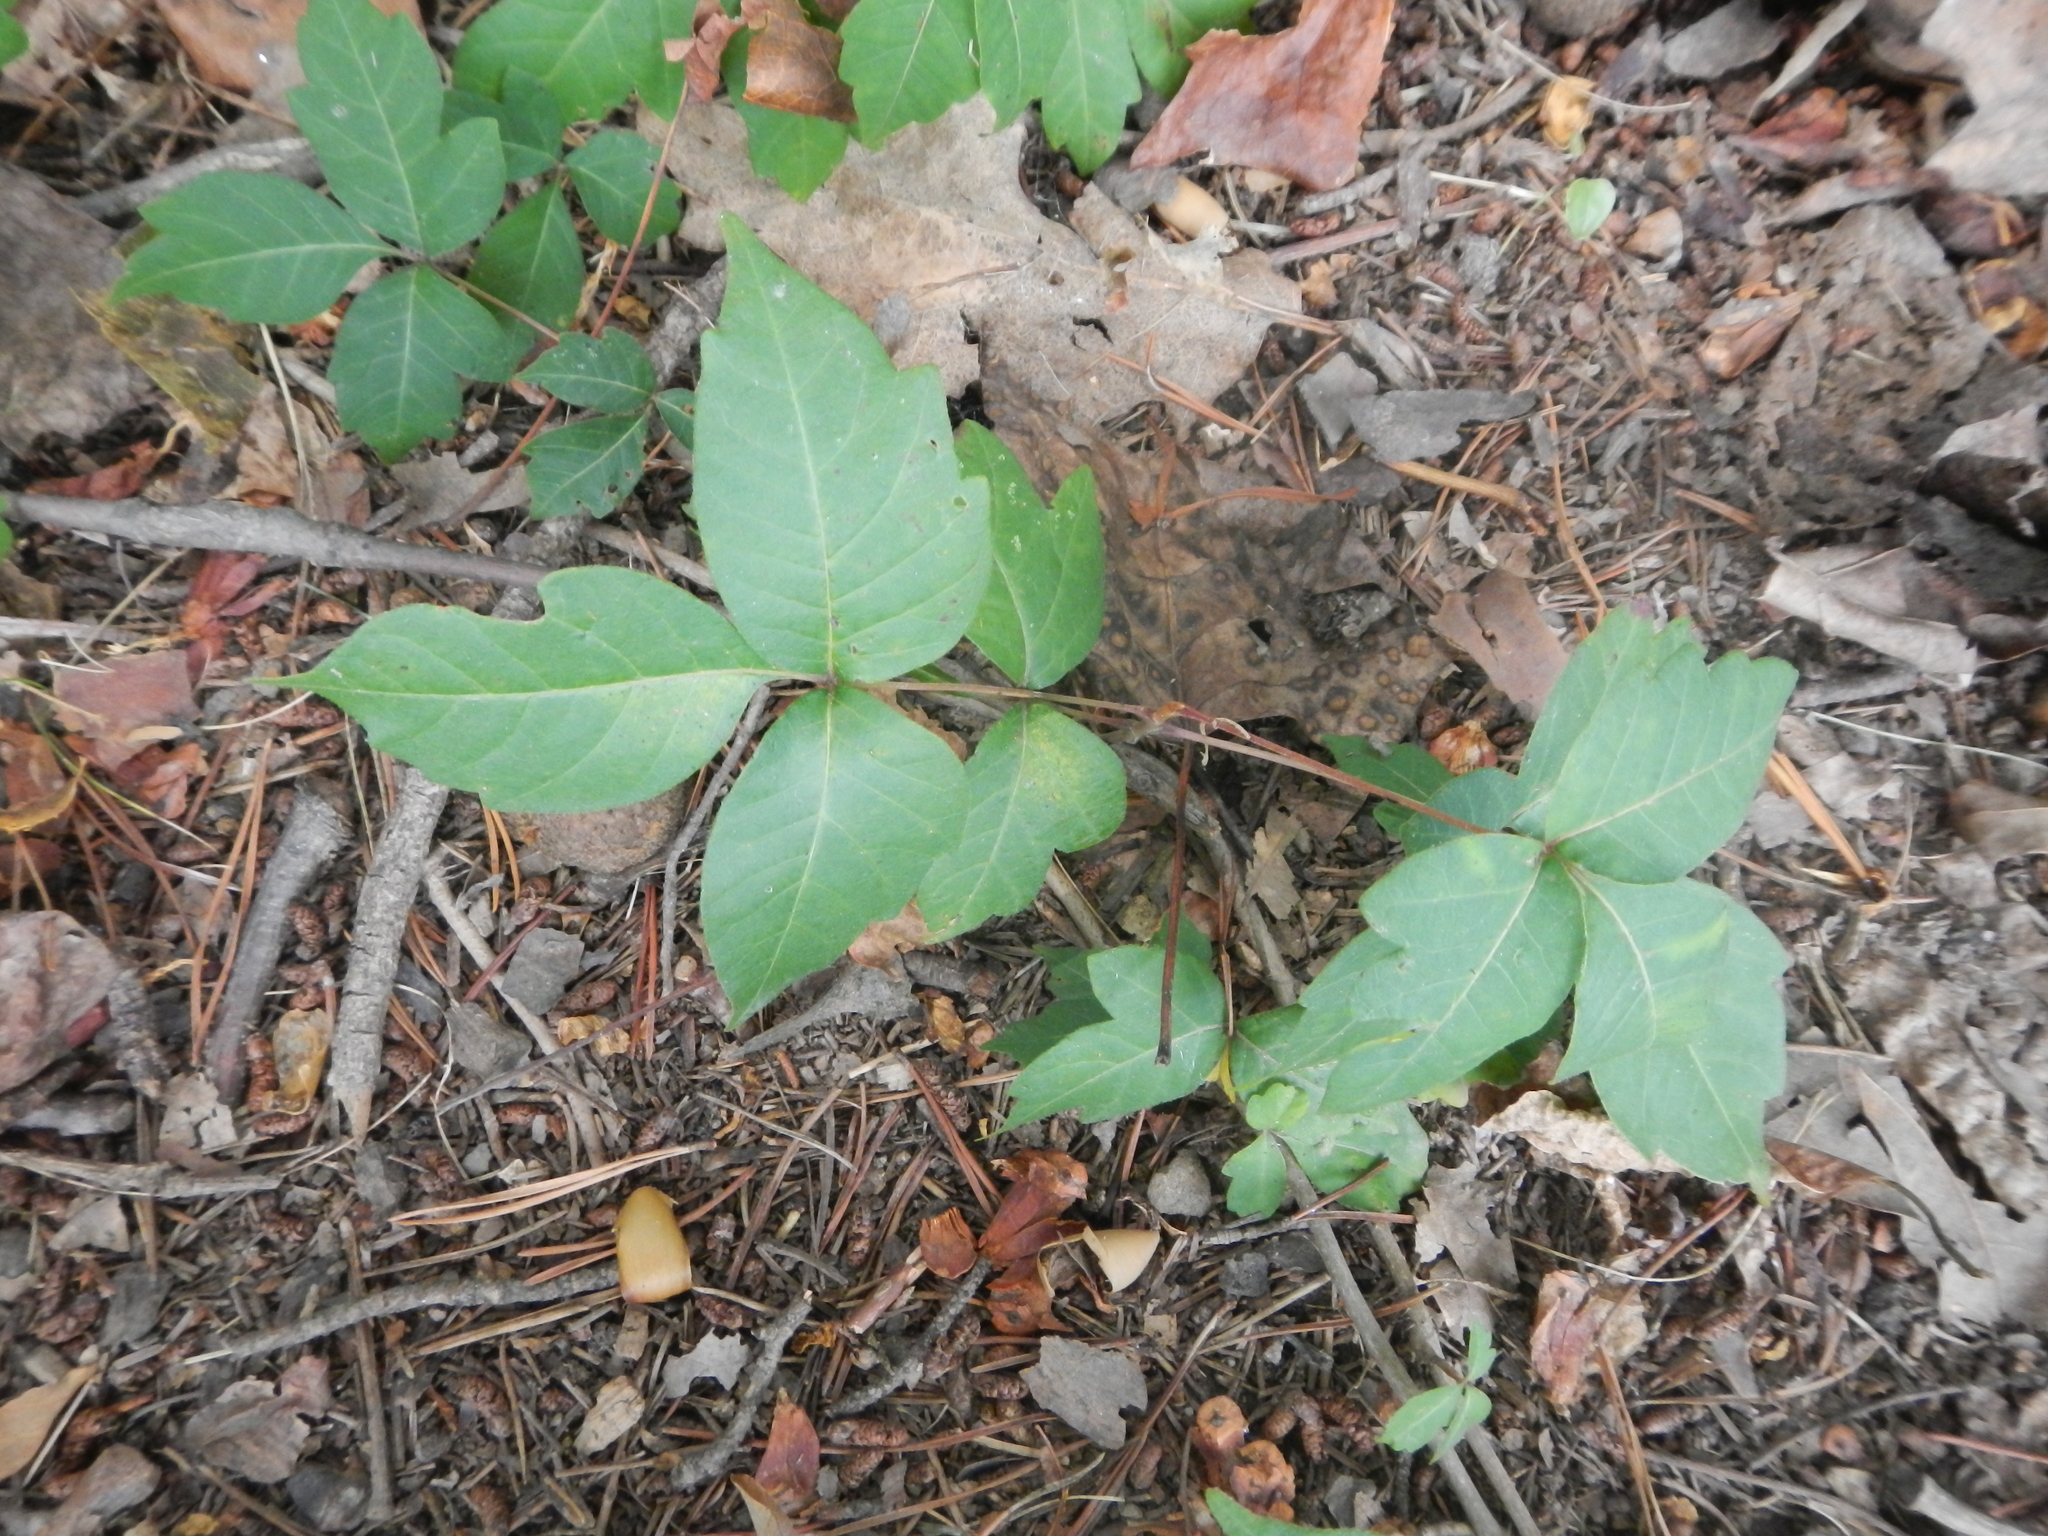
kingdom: Plantae
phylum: Tracheophyta
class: Magnoliopsida
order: Sapindales
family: Anacardiaceae
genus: Toxicodendron
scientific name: Toxicodendron radicans
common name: Poison ivy
